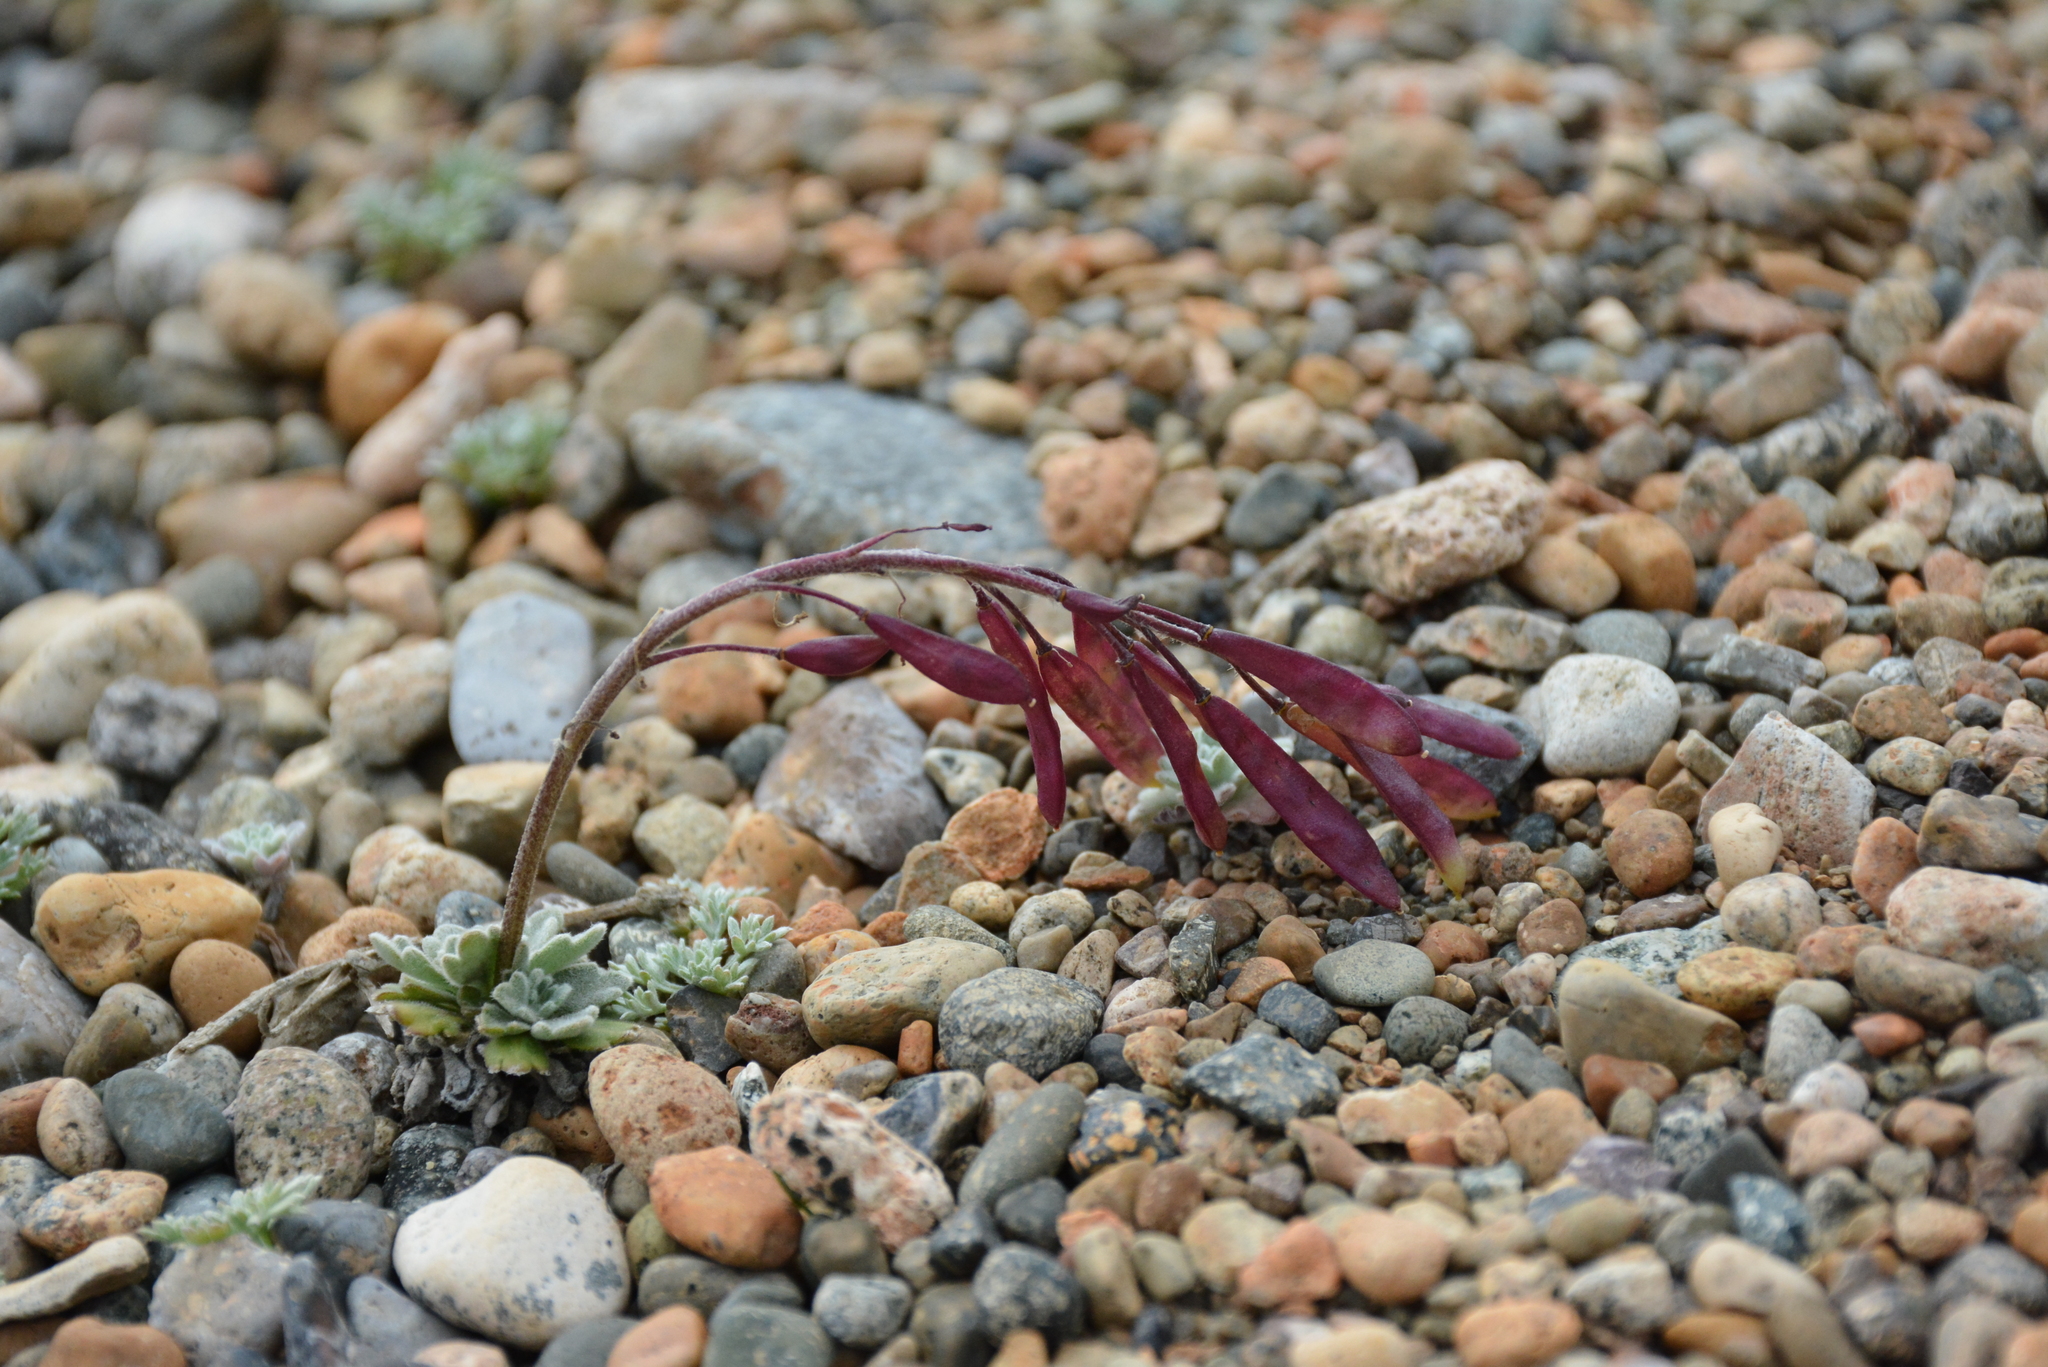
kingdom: Plantae
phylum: Tracheophyta
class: Magnoliopsida
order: Brassicales
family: Brassicaceae
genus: Smelowskia
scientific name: Smelowskia parryoides
